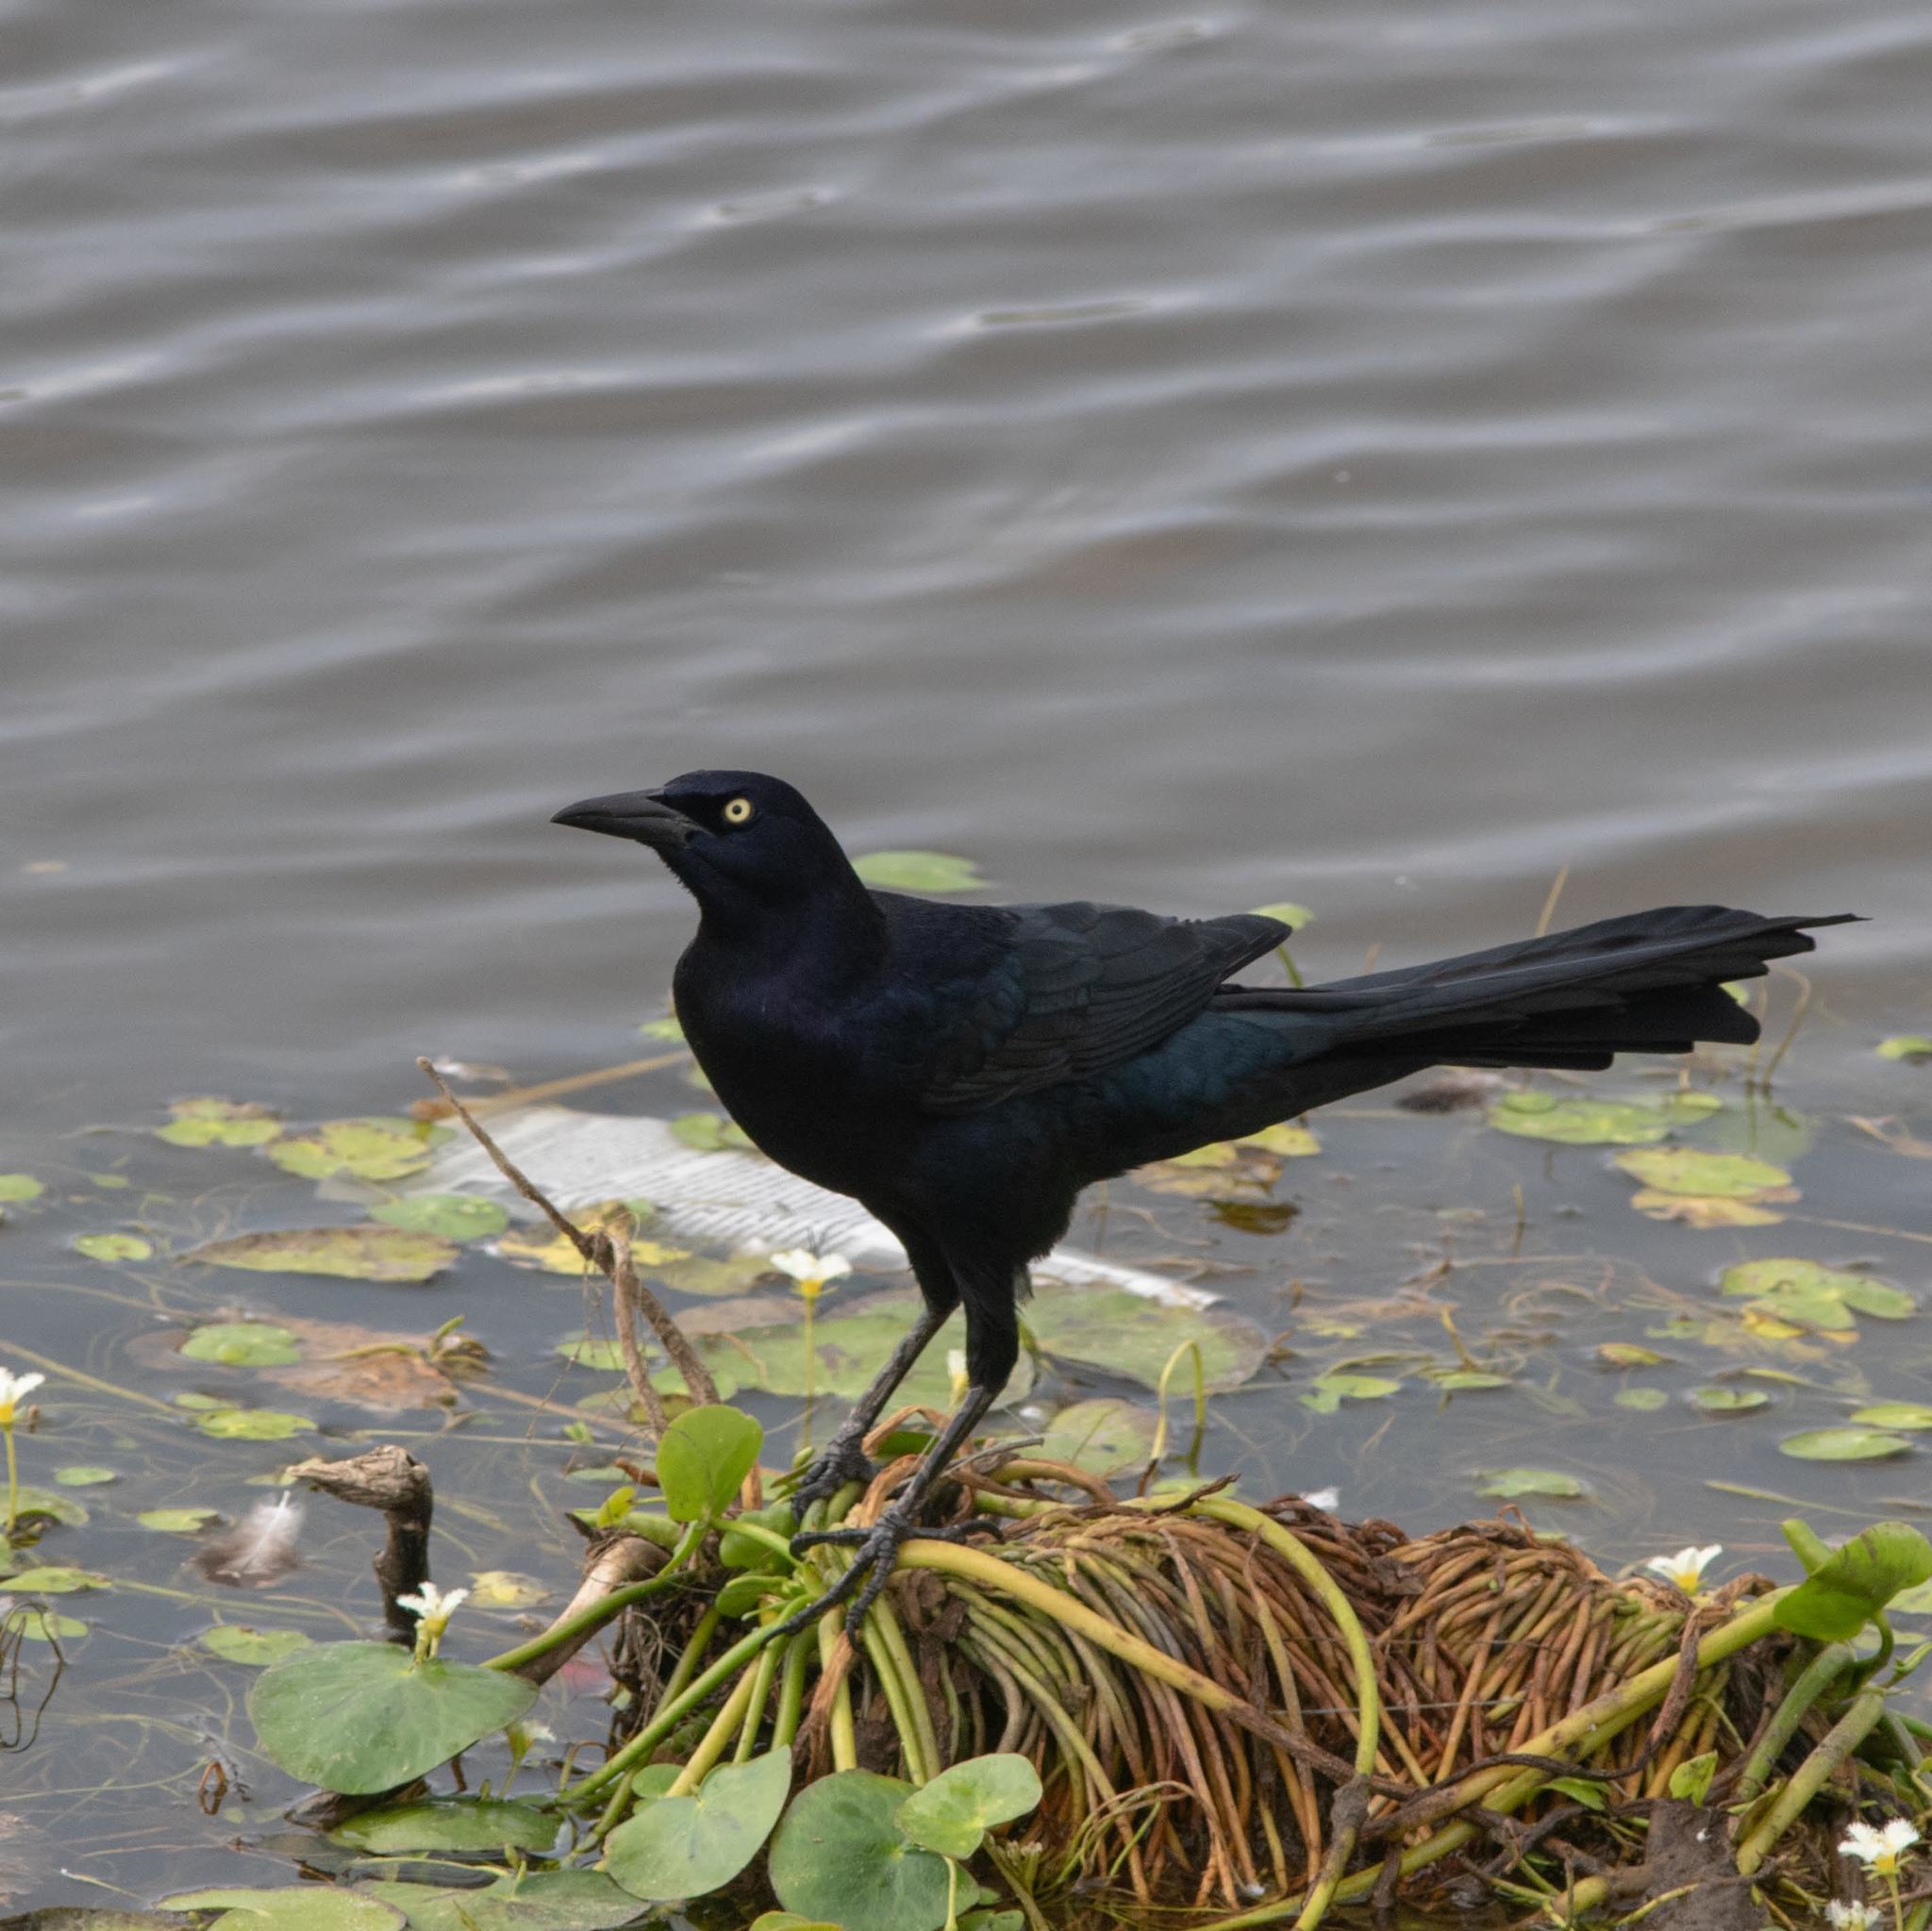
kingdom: Animalia
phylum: Chordata
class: Aves
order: Passeriformes
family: Icteridae
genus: Quiscalus
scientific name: Quiscalus mexicanus
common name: Great-tailed grackle
